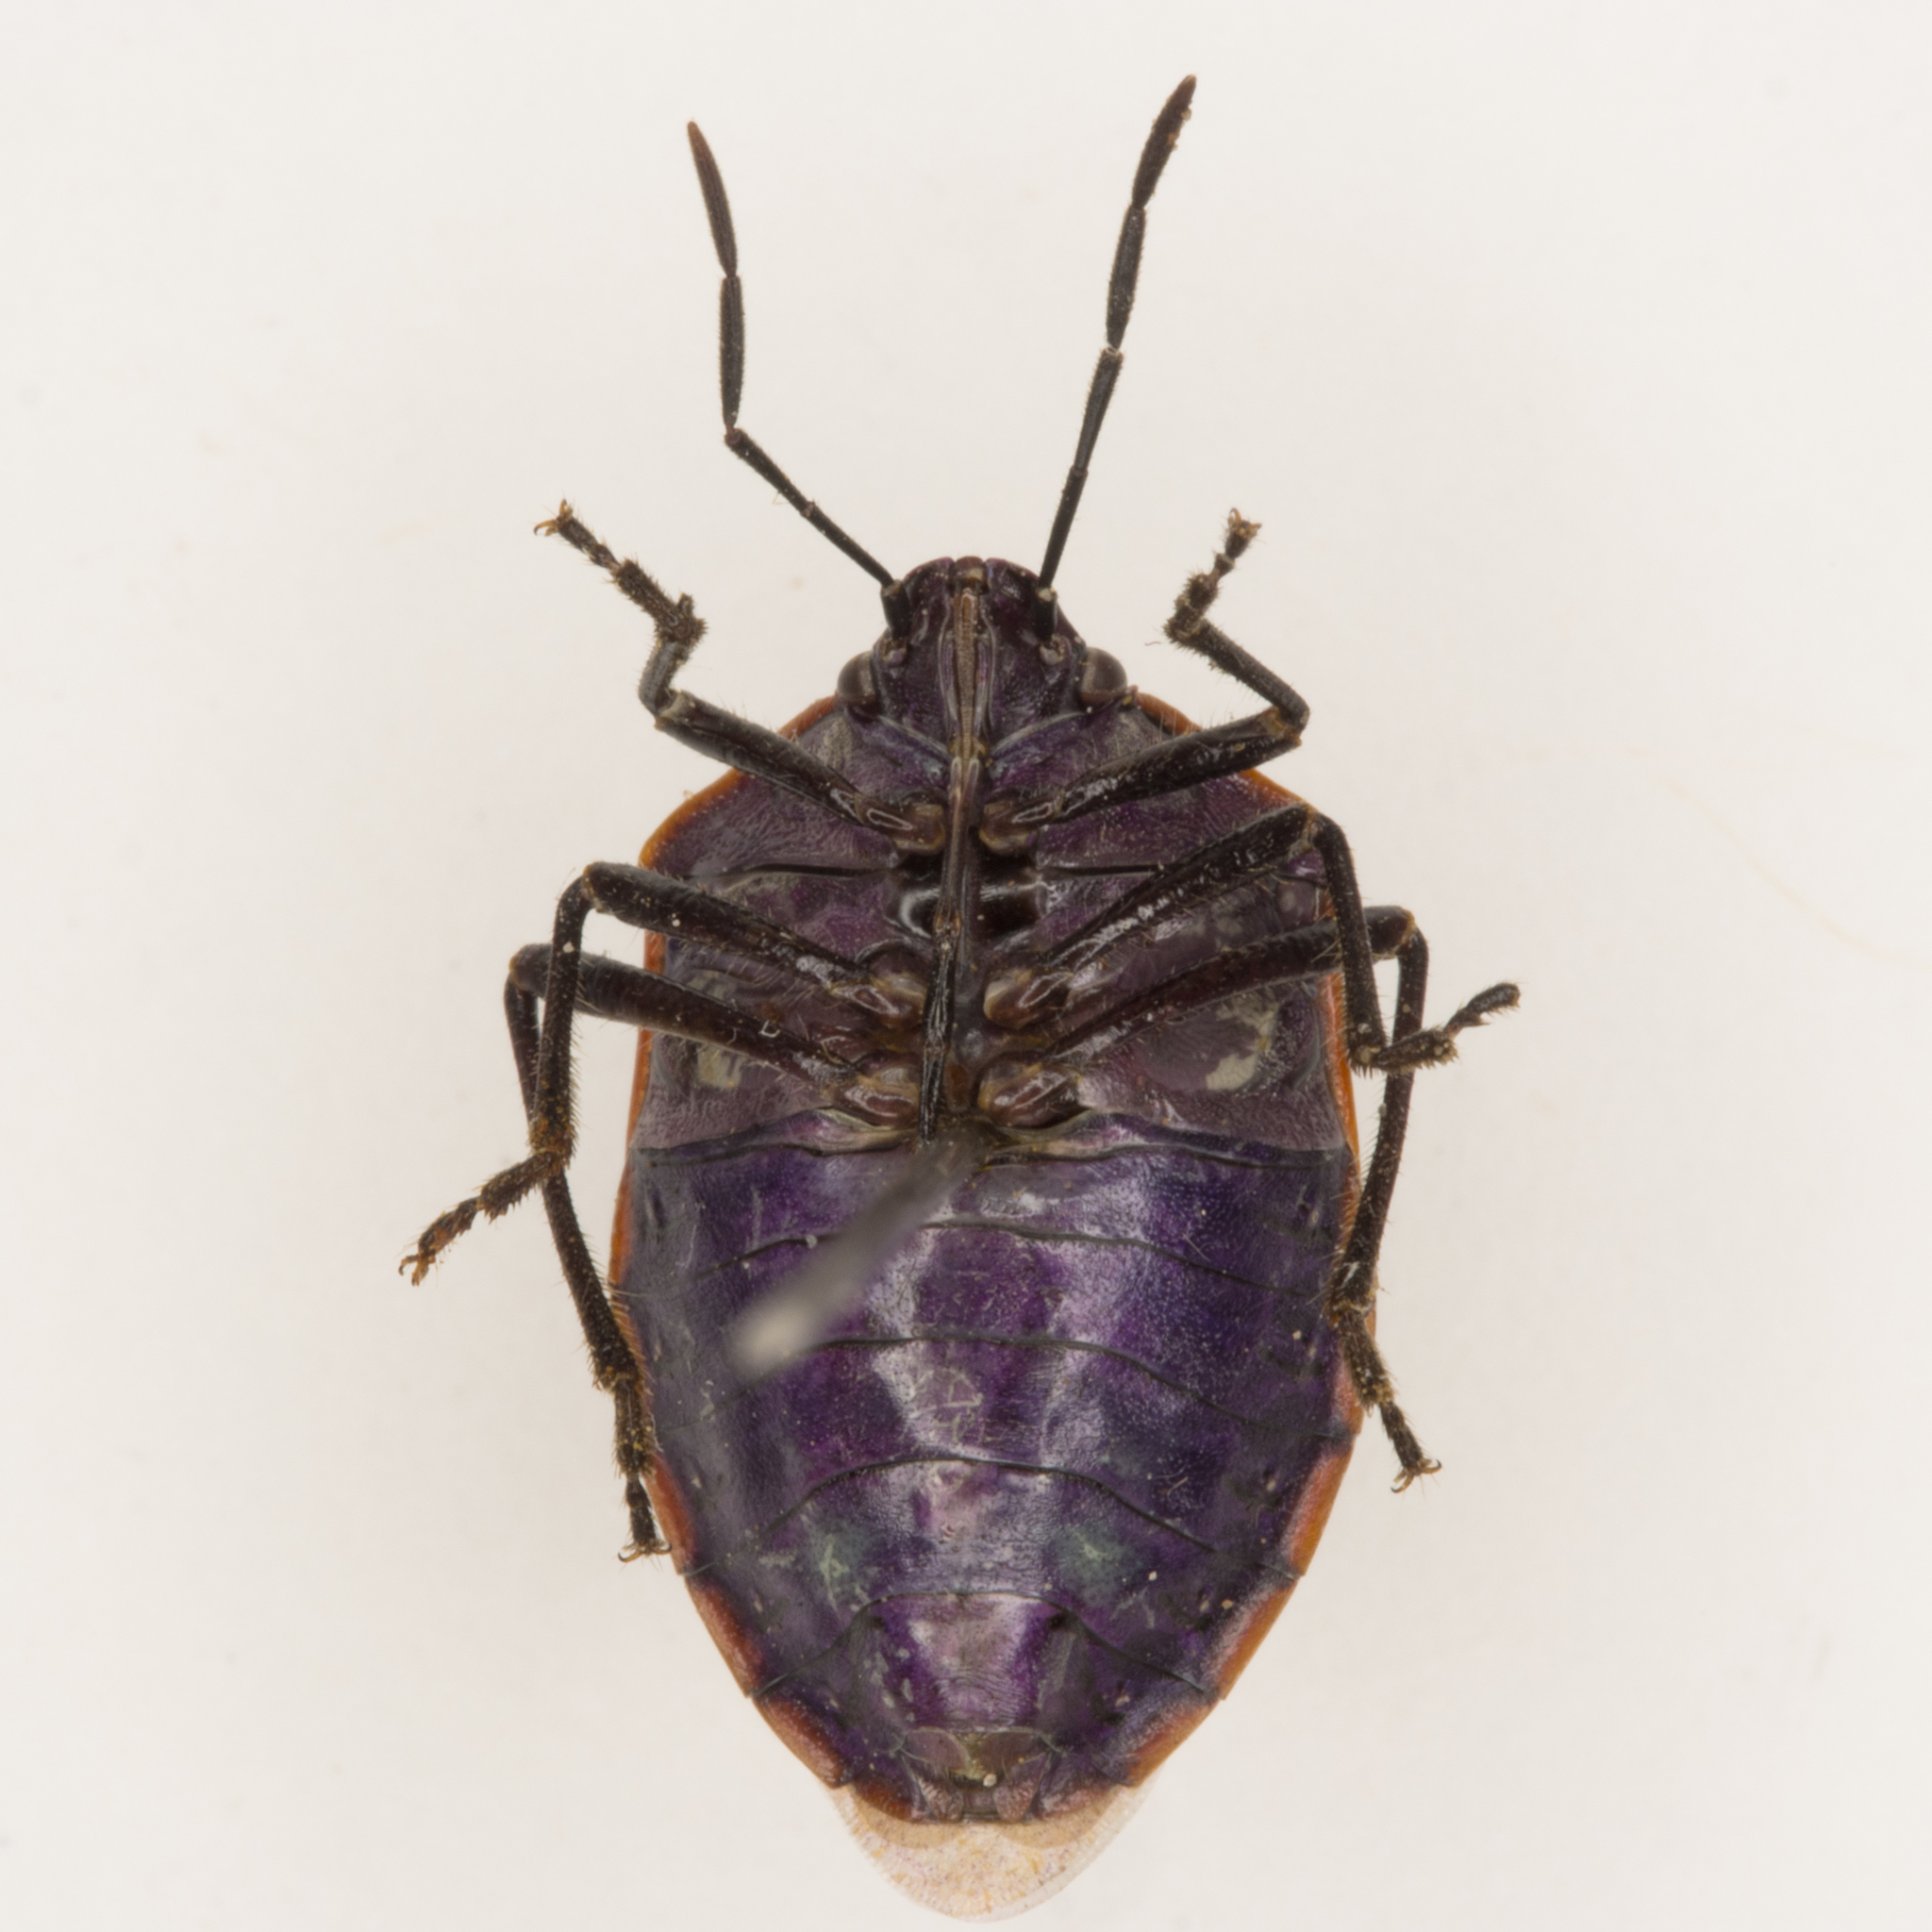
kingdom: Animalia
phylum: Arthropoda
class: Insecta
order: Hemiptera
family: Pentatomidae
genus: Chlorochroa
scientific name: Chlorochroa ligata
